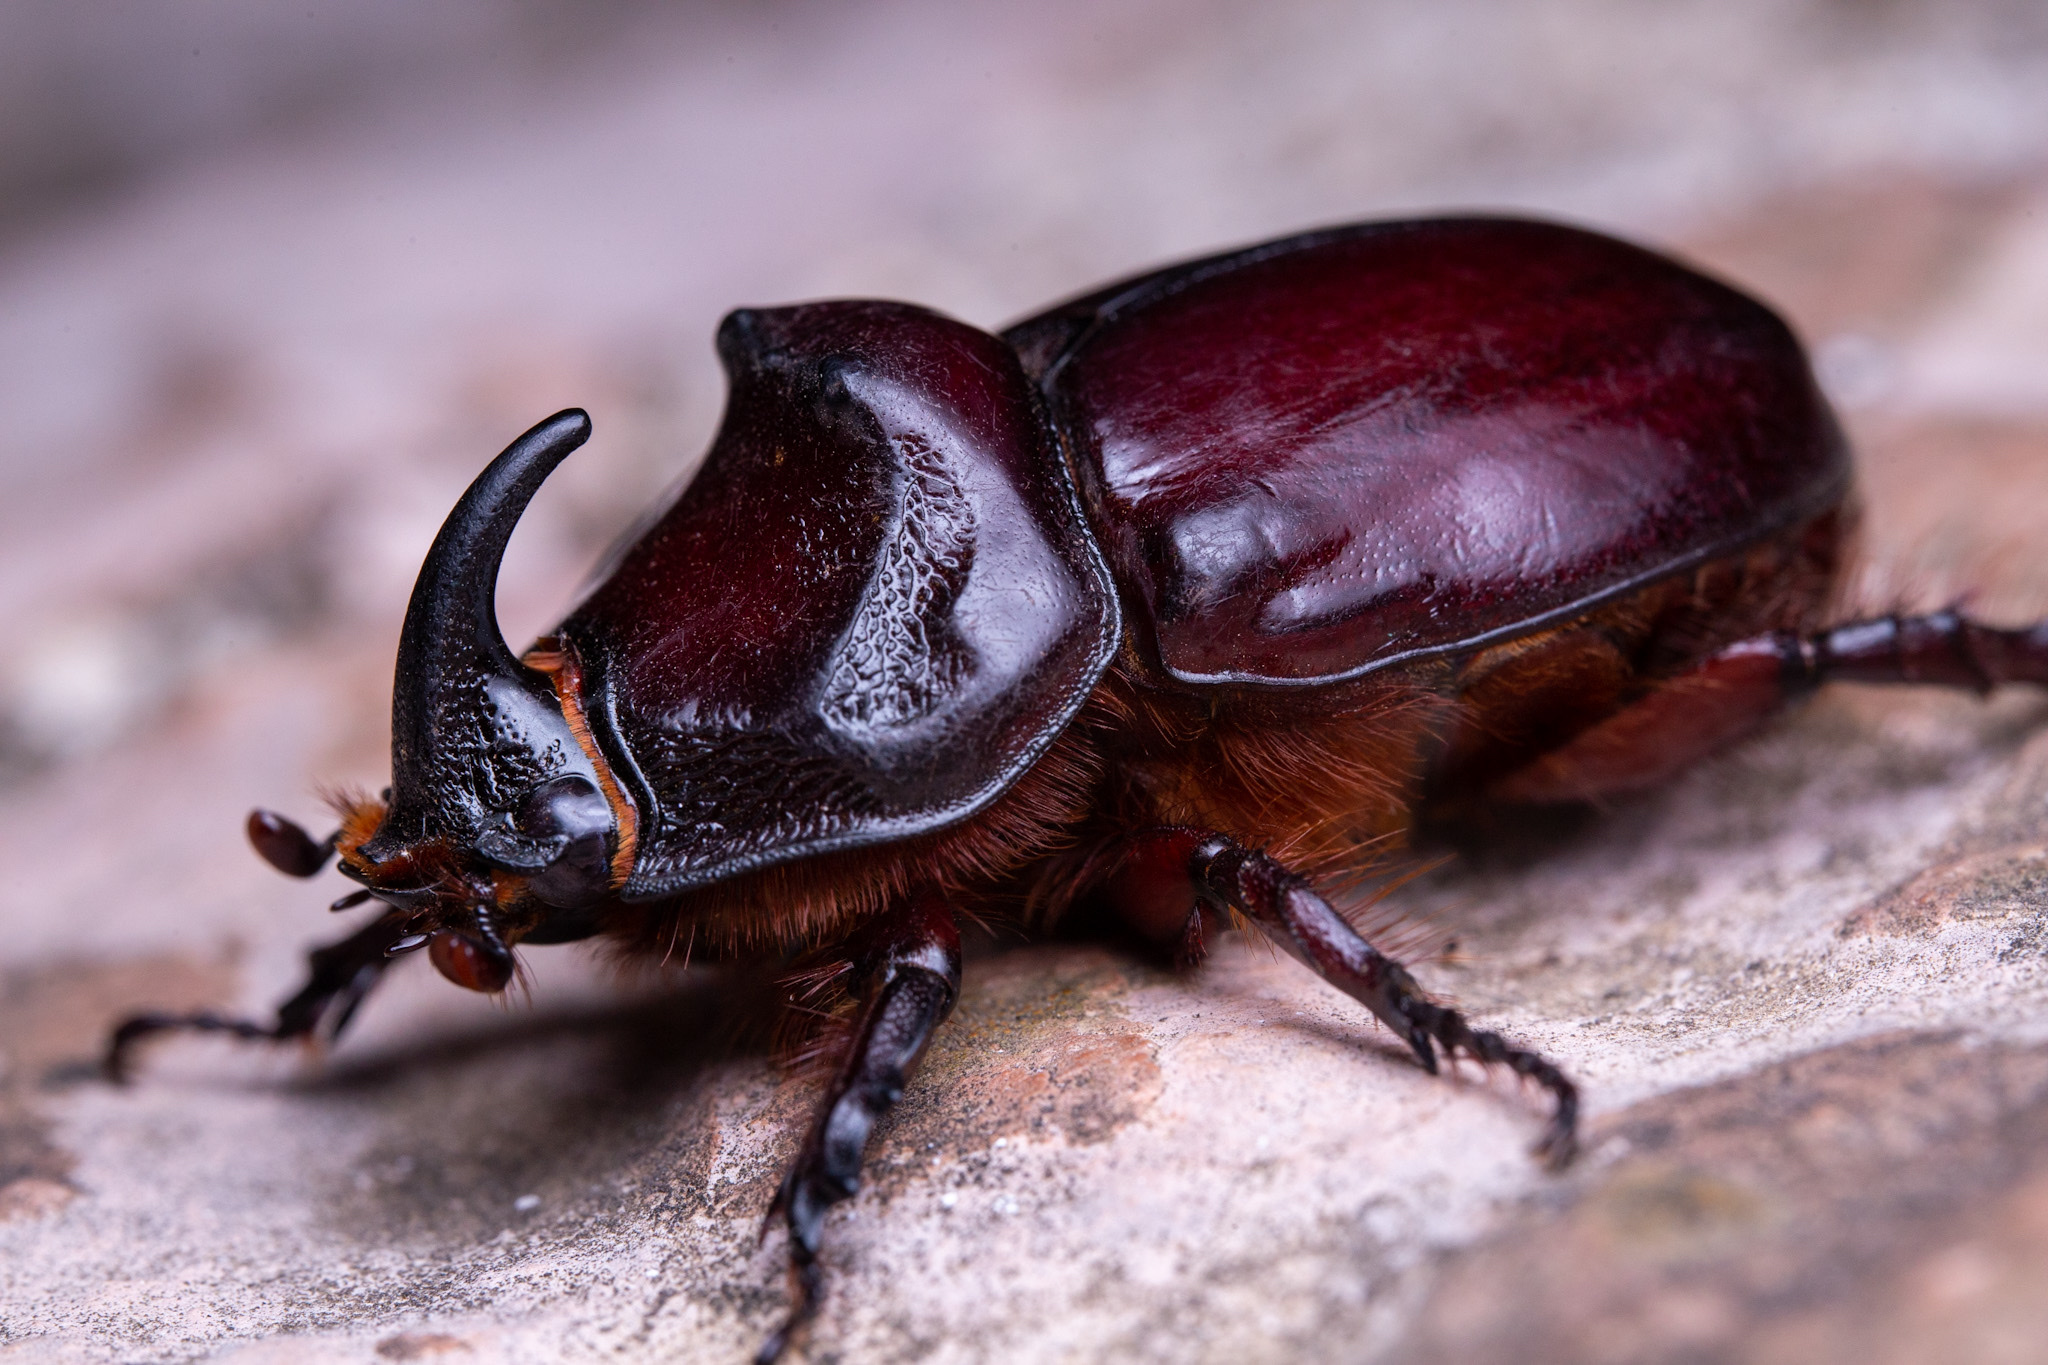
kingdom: Animalia
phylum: Arthropoda
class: Insecta
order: Coleoptera
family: Scarabaeidae
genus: Oryctes
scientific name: Oryctes nasicornis
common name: European rhinoceros beetle
